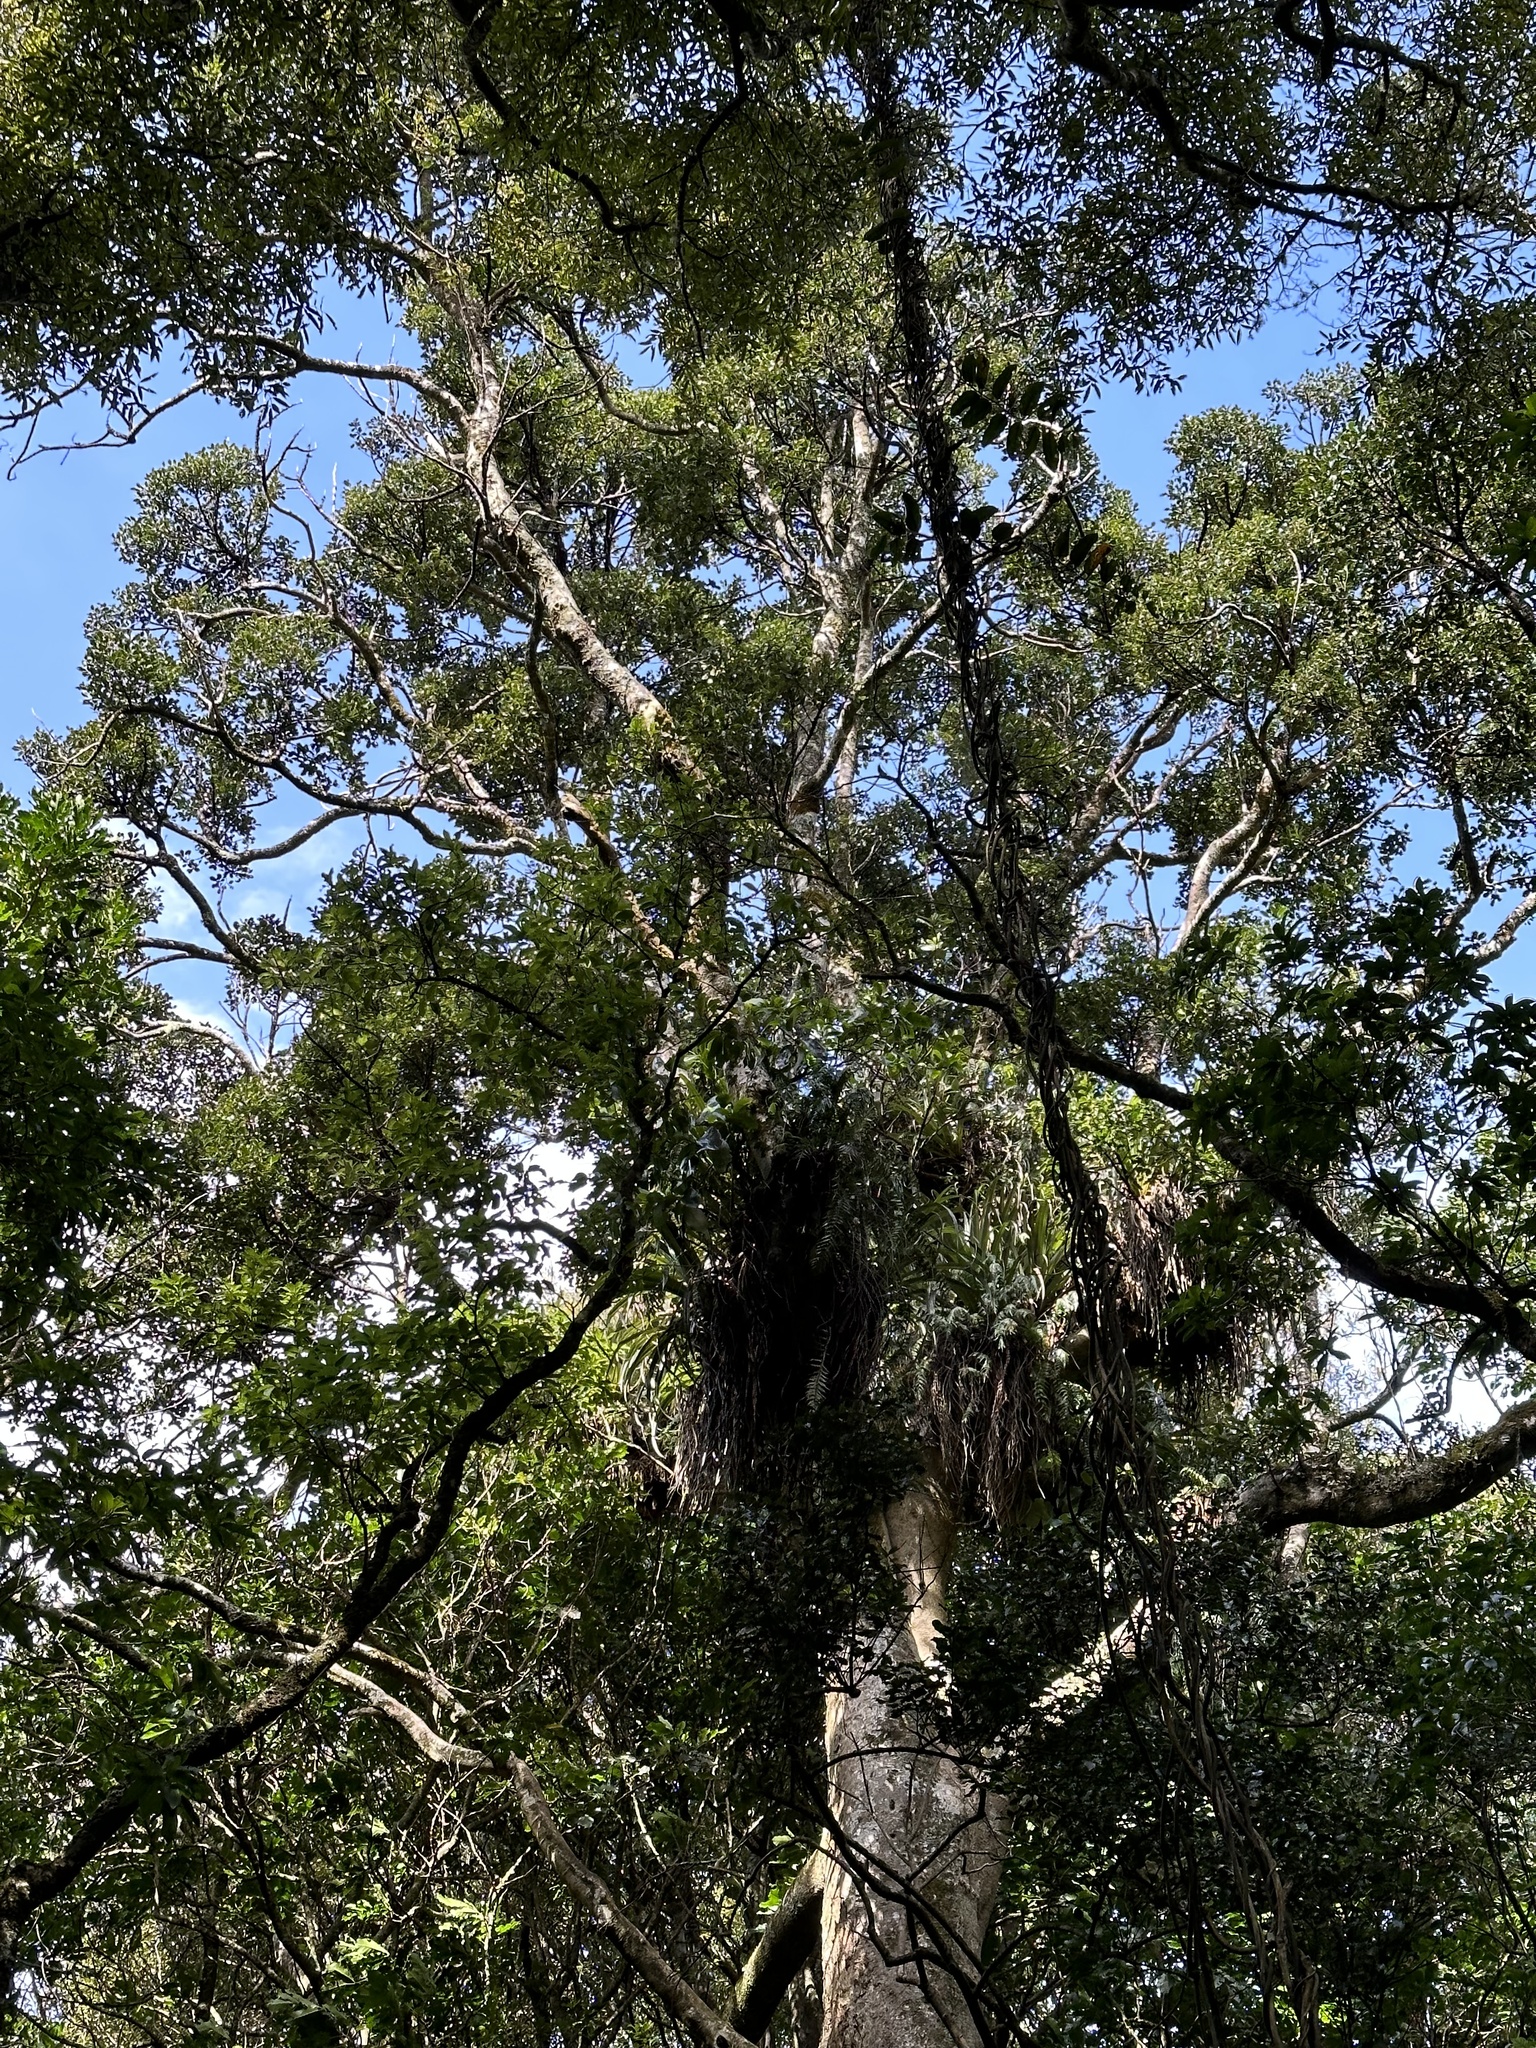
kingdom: Plantae
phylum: Tracheophyta
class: Magnoliopsida
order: Laurales
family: Atherospermataceae
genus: Laurelia
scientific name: Laurelia novae-zelandiae
